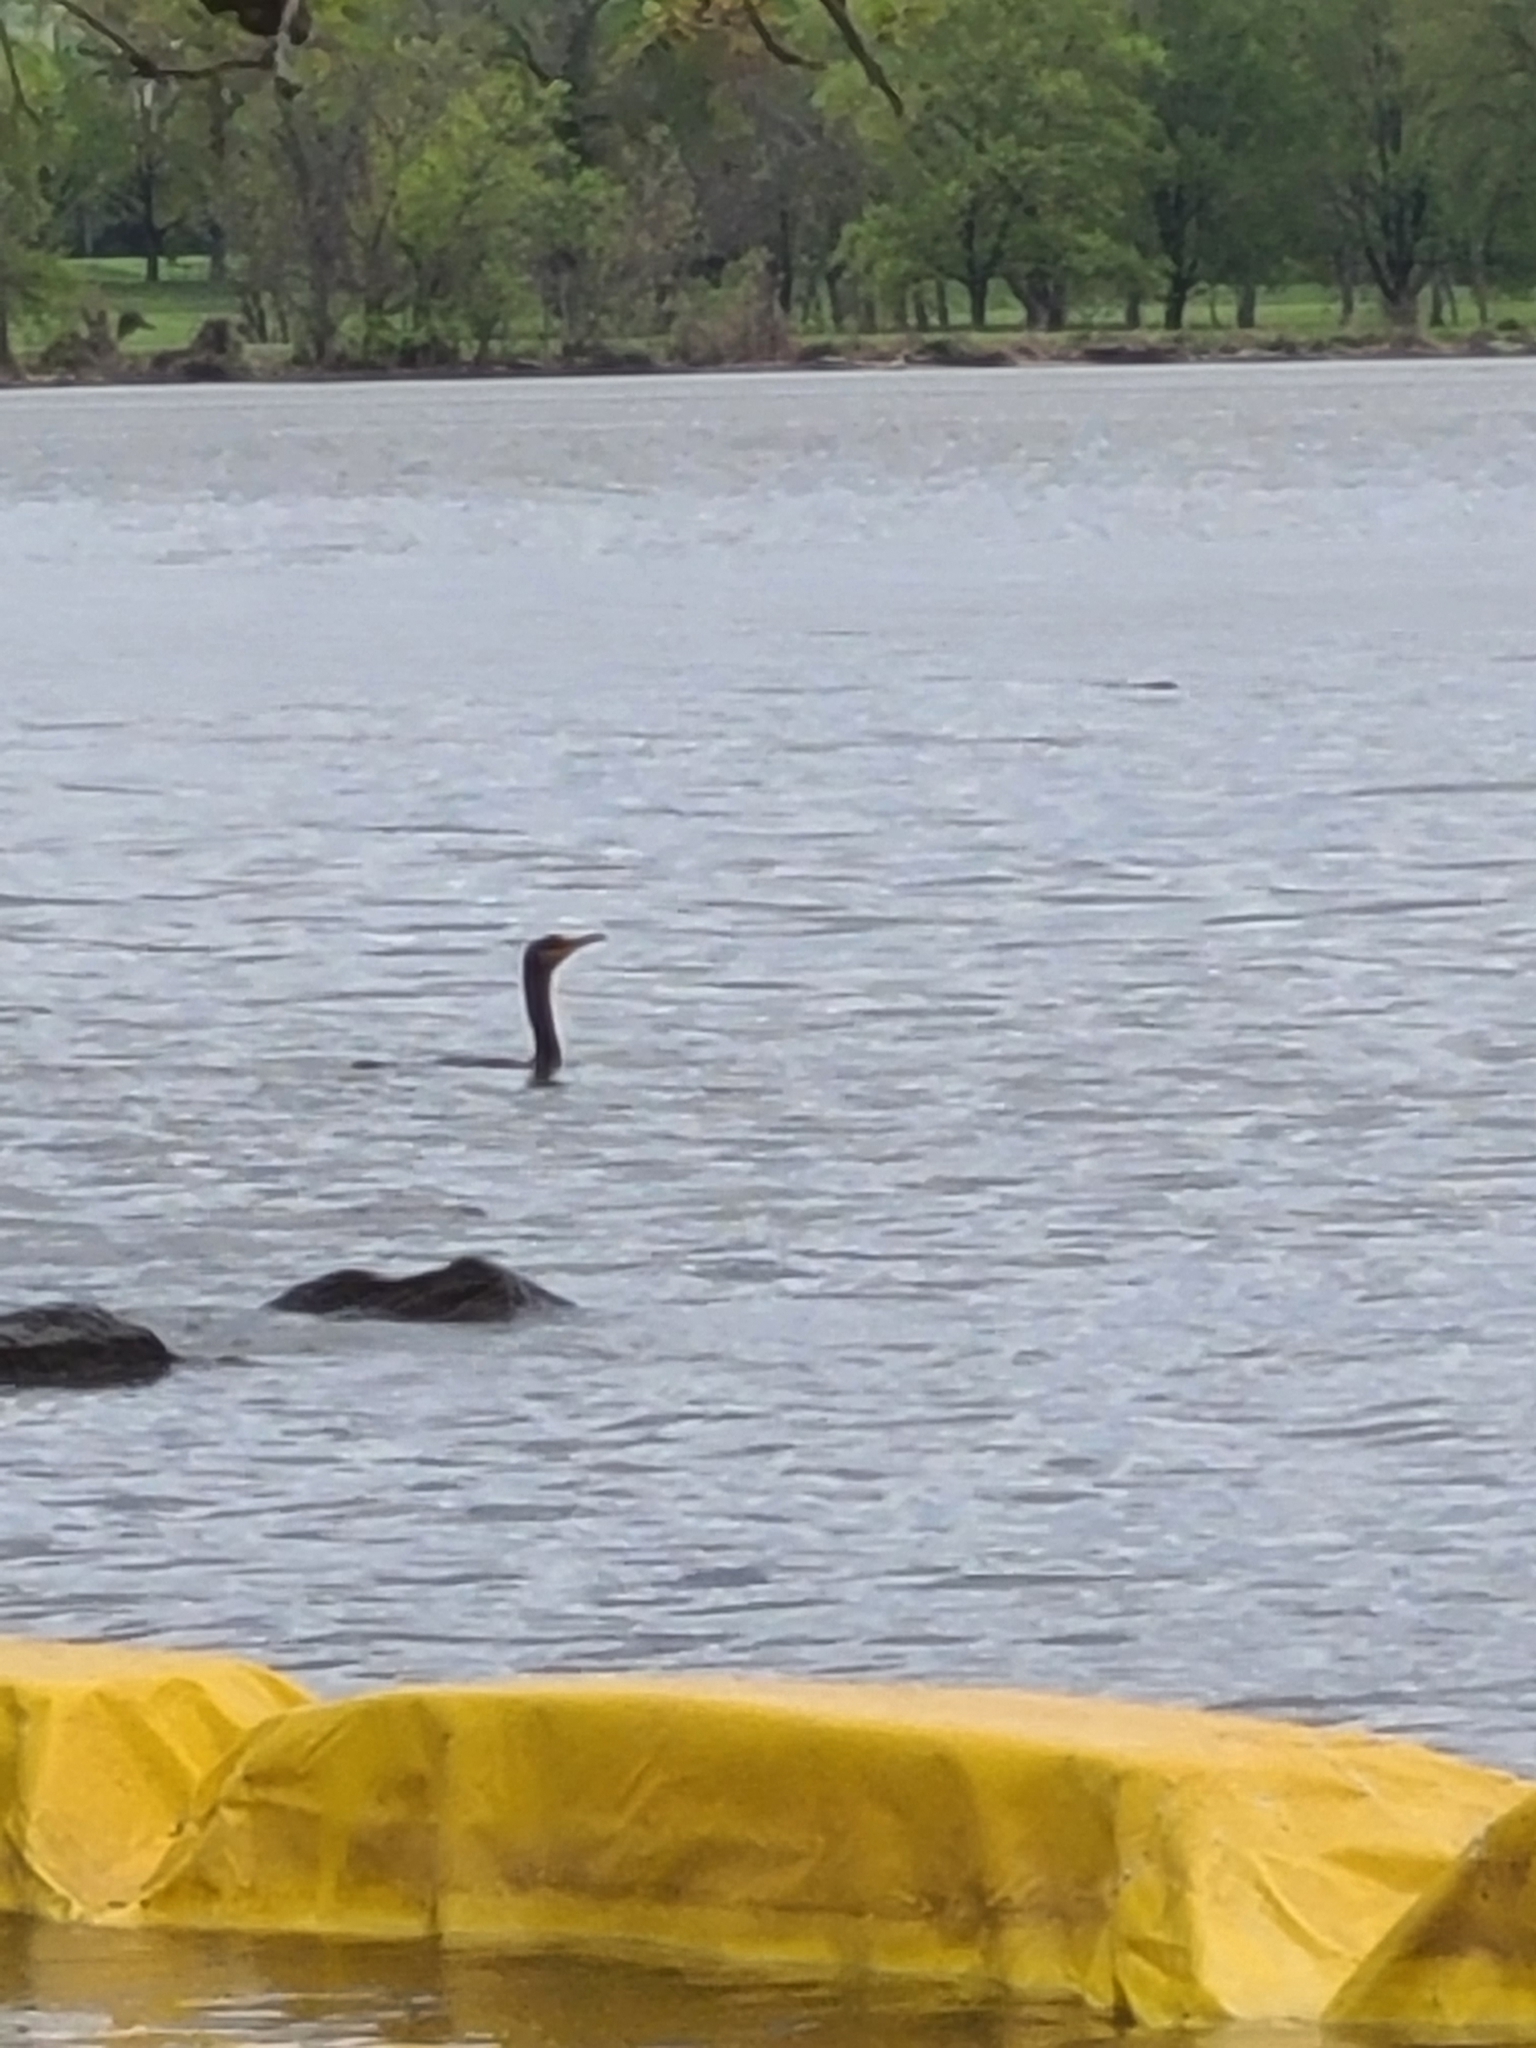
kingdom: Animalia
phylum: Chordata
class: Aves
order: Suliformes
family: Phalacrocoracidae
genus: Phalacrocorax
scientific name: Phalacrocorax auritus
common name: Double-crested cormorant
